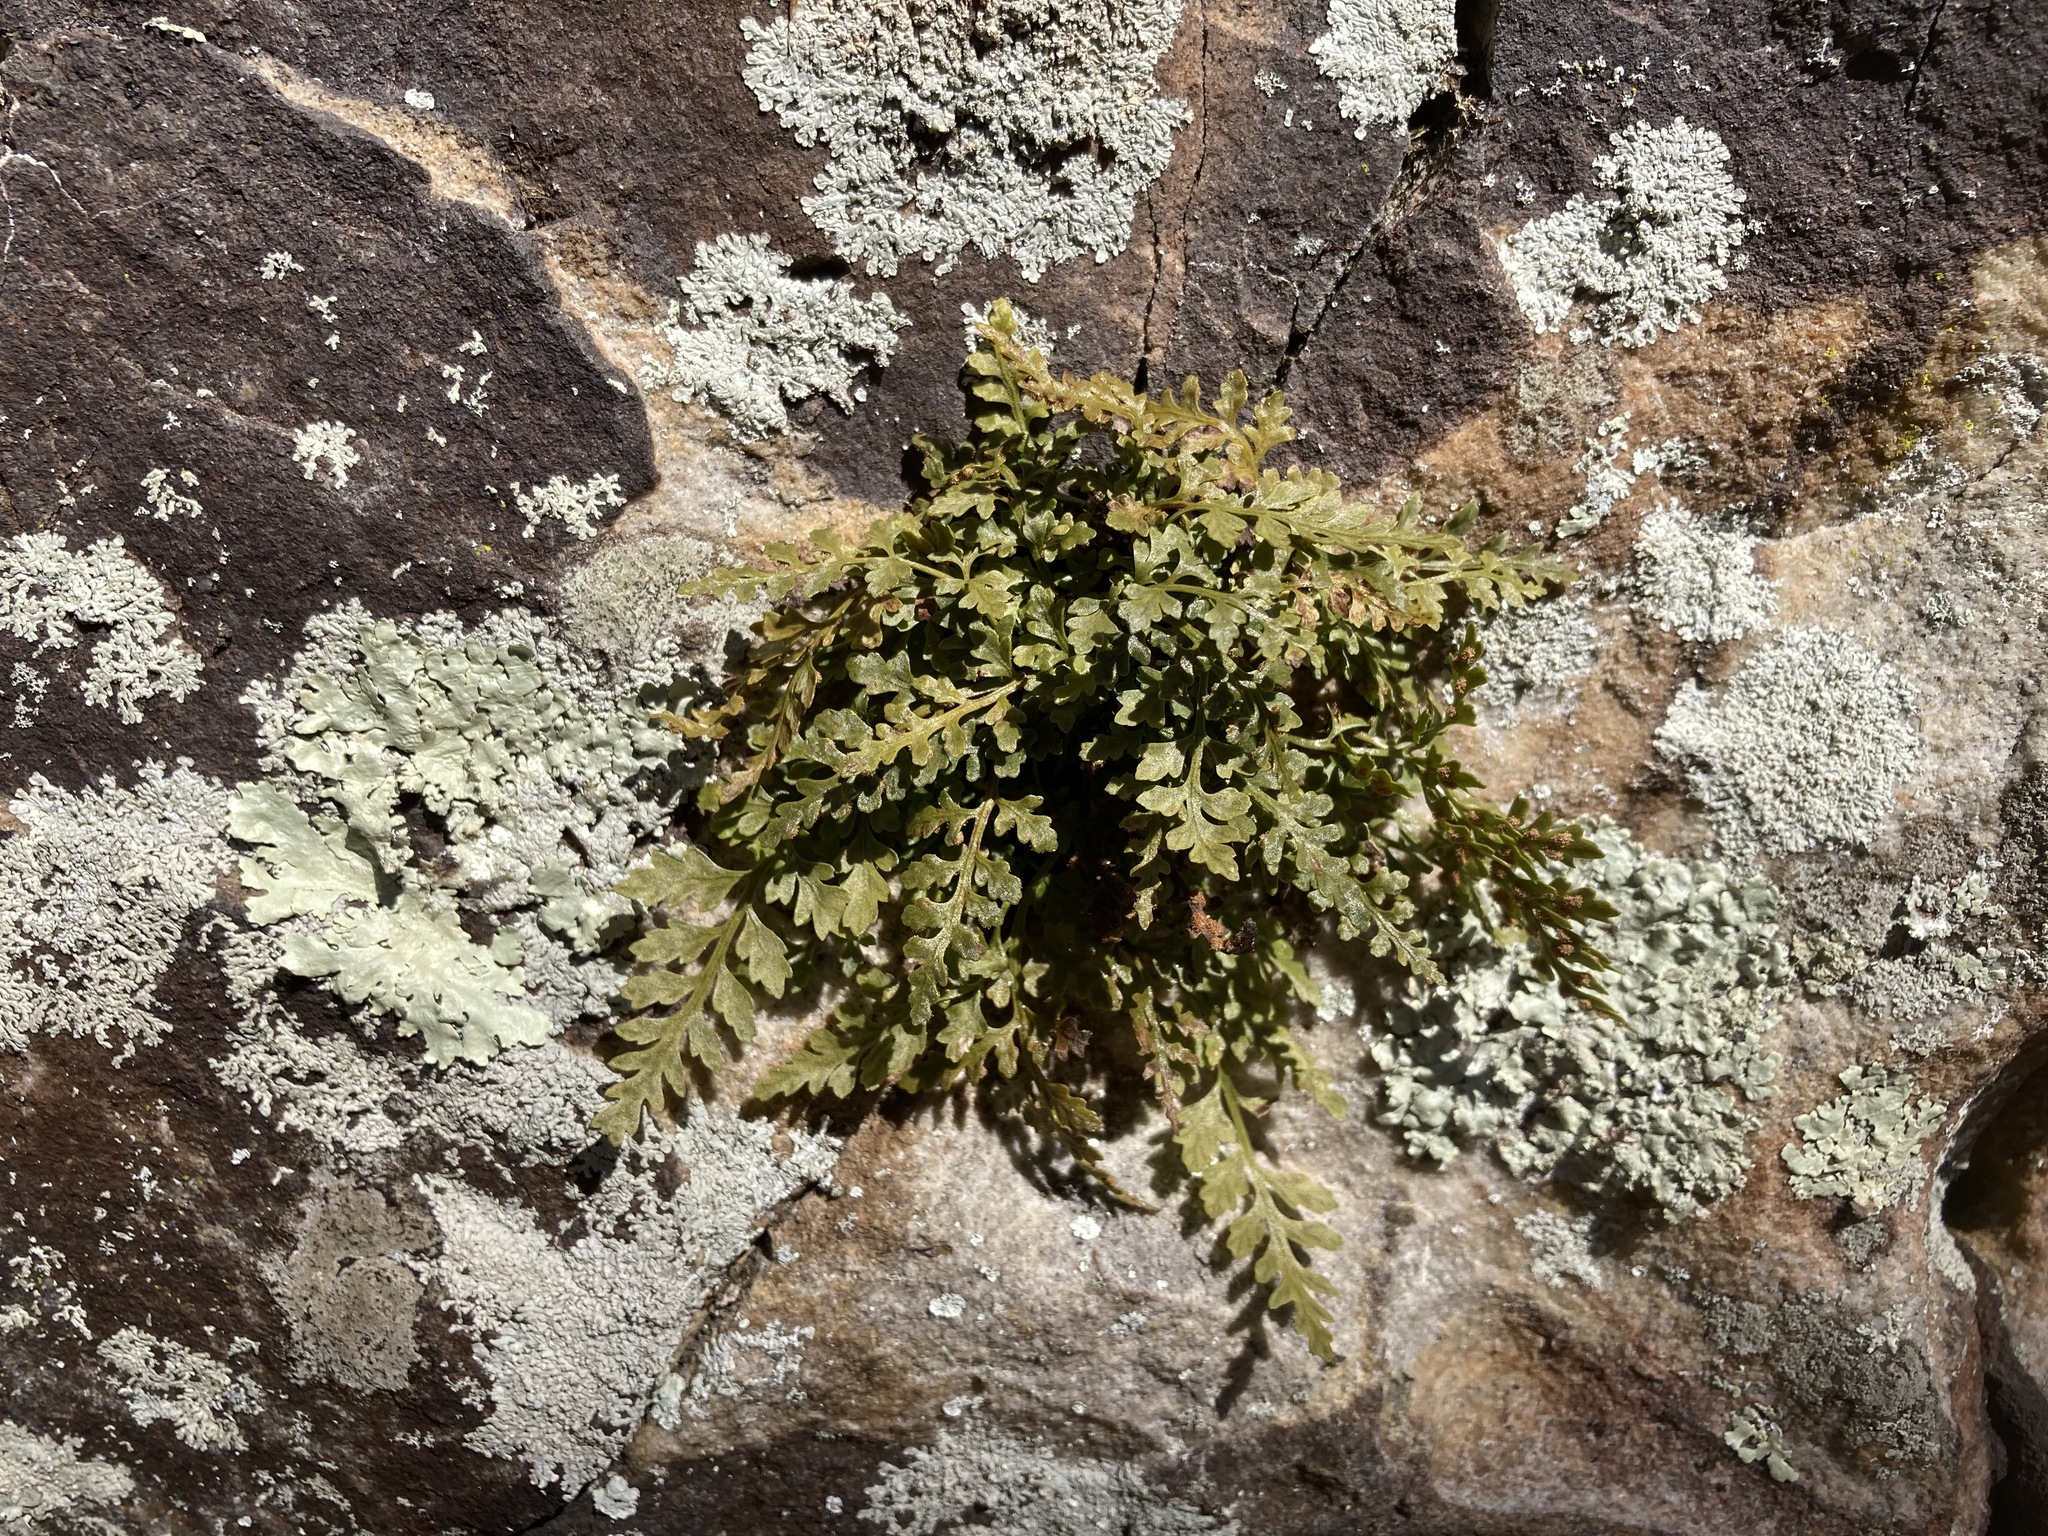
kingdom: Plantae
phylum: Tracheophyta
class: Polypodiopsida
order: Polypodiales
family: Aspleniaceae
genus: Asplenium
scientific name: Asplenium montanum
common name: Mountain spleenwort
